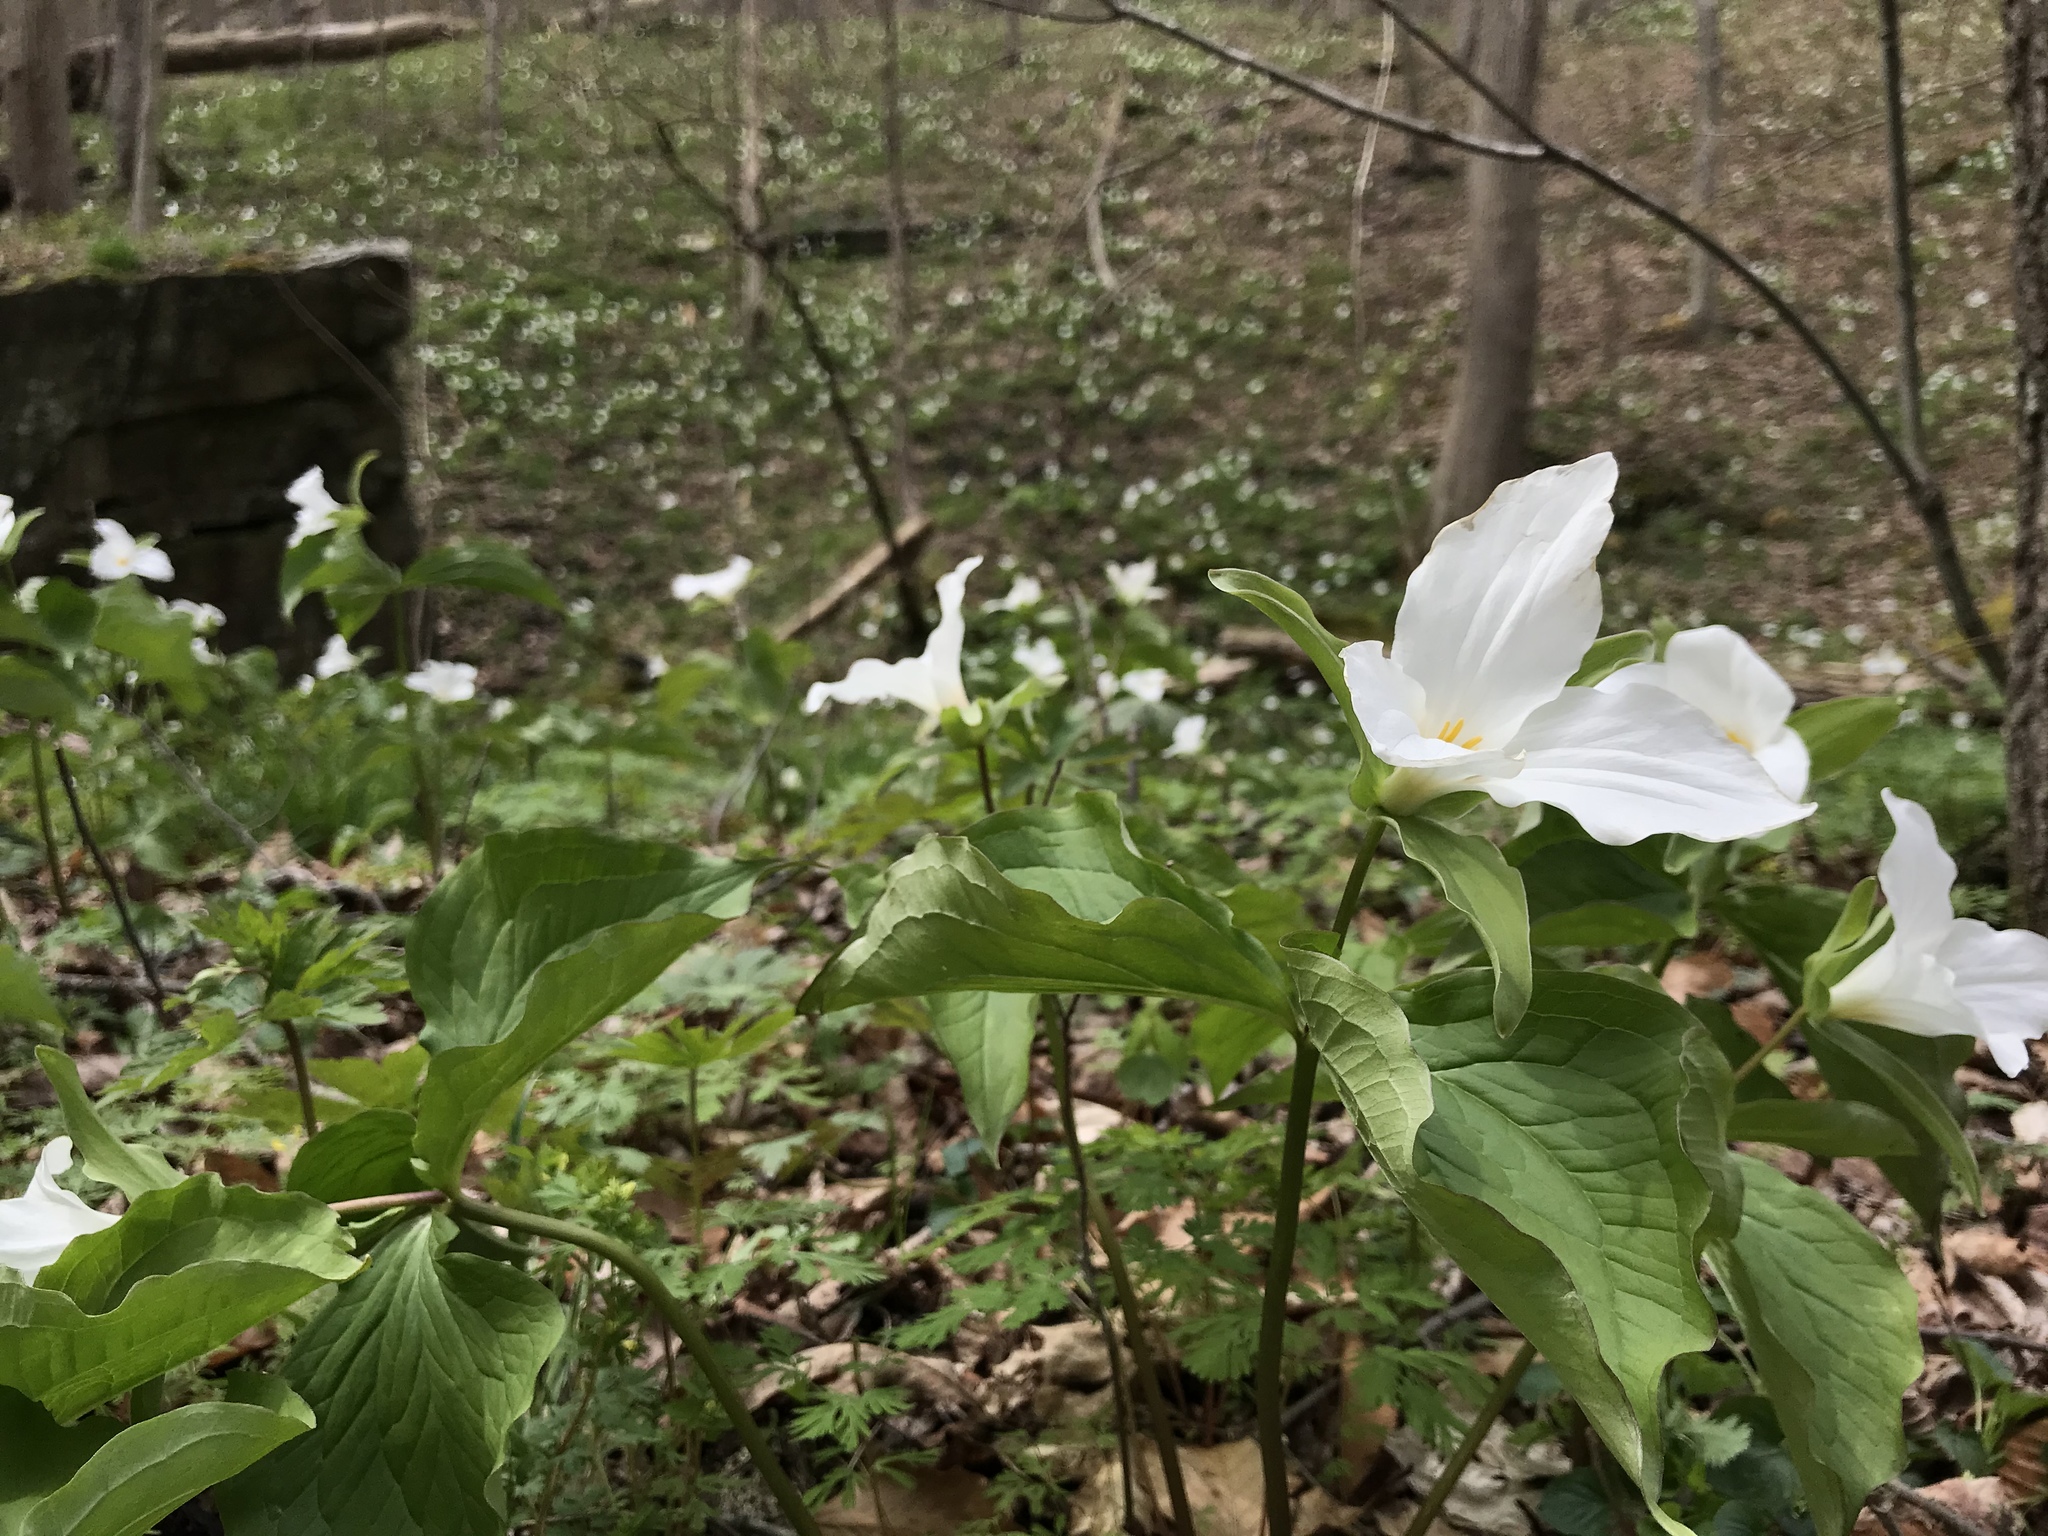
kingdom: Plantae
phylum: Tracheophyta
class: Liliopsida
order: Liliales
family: Melanthiaceae
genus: Trillium
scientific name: Trillium grandiflorum
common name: Great white trillium
